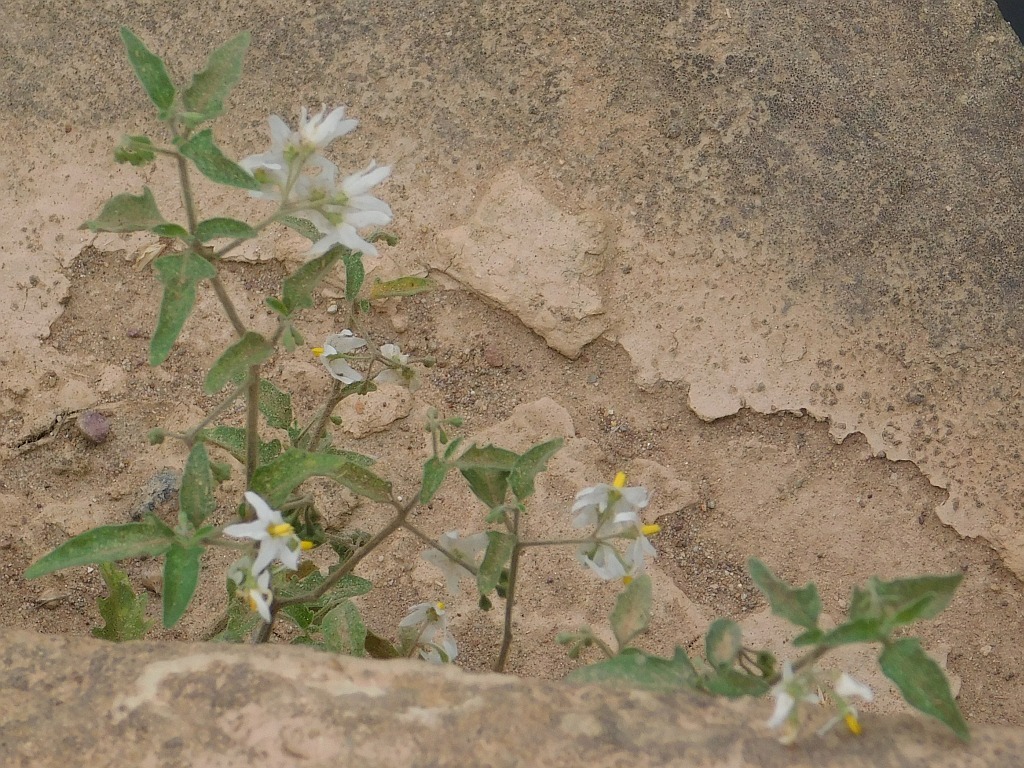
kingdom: Plantae
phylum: Tracheophyta
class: Magnoliopsida
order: Solanales
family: Solanaceae
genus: Solanum
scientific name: Solanum chenopodioides
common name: Tall nightshade
